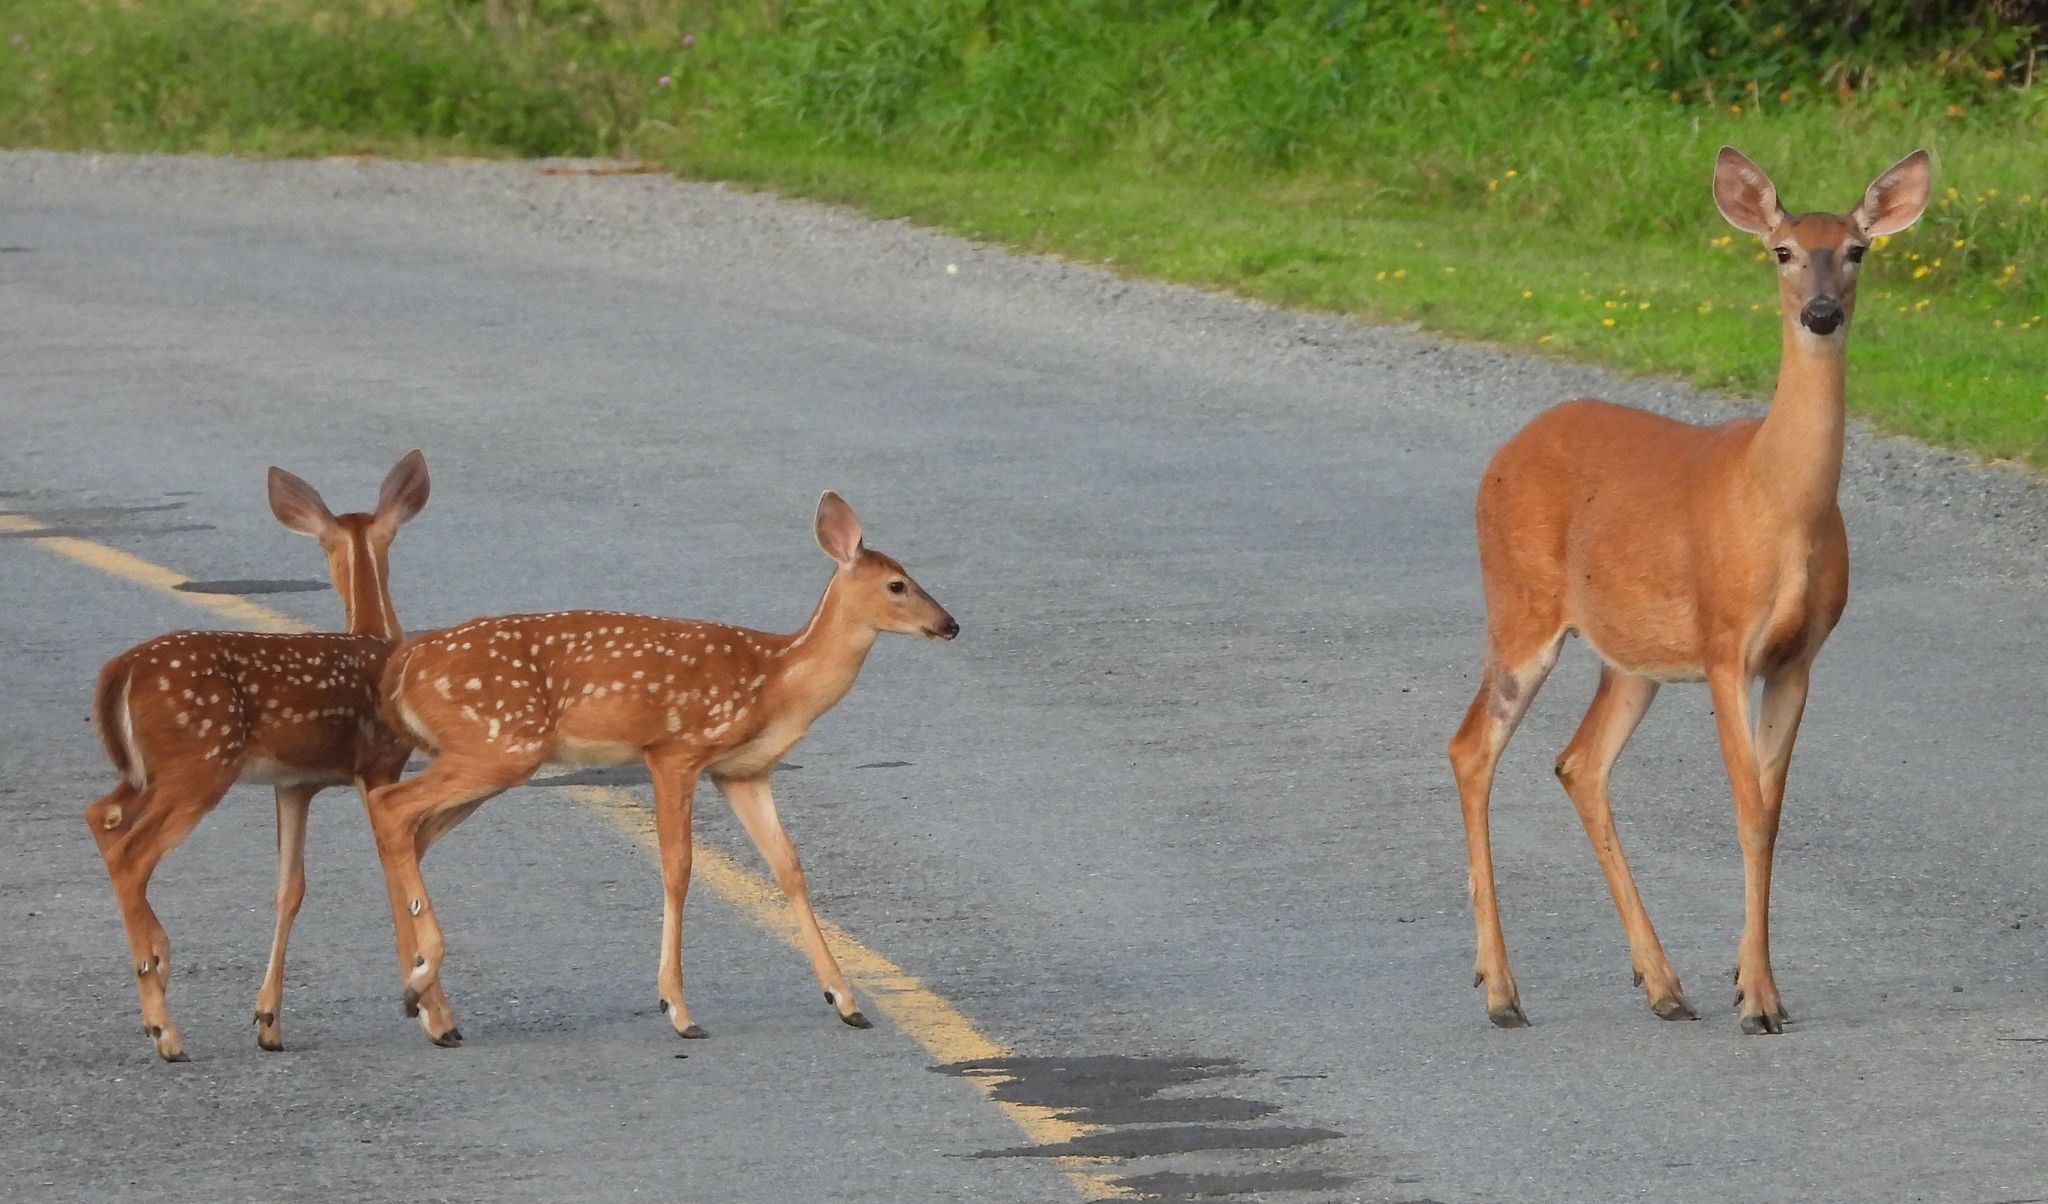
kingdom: Animalia
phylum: Chordata
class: Mammalia
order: Artiodactyla
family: Cervidae
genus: Odocoileus
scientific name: Odocoileus virginianus
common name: White-tailed deer
